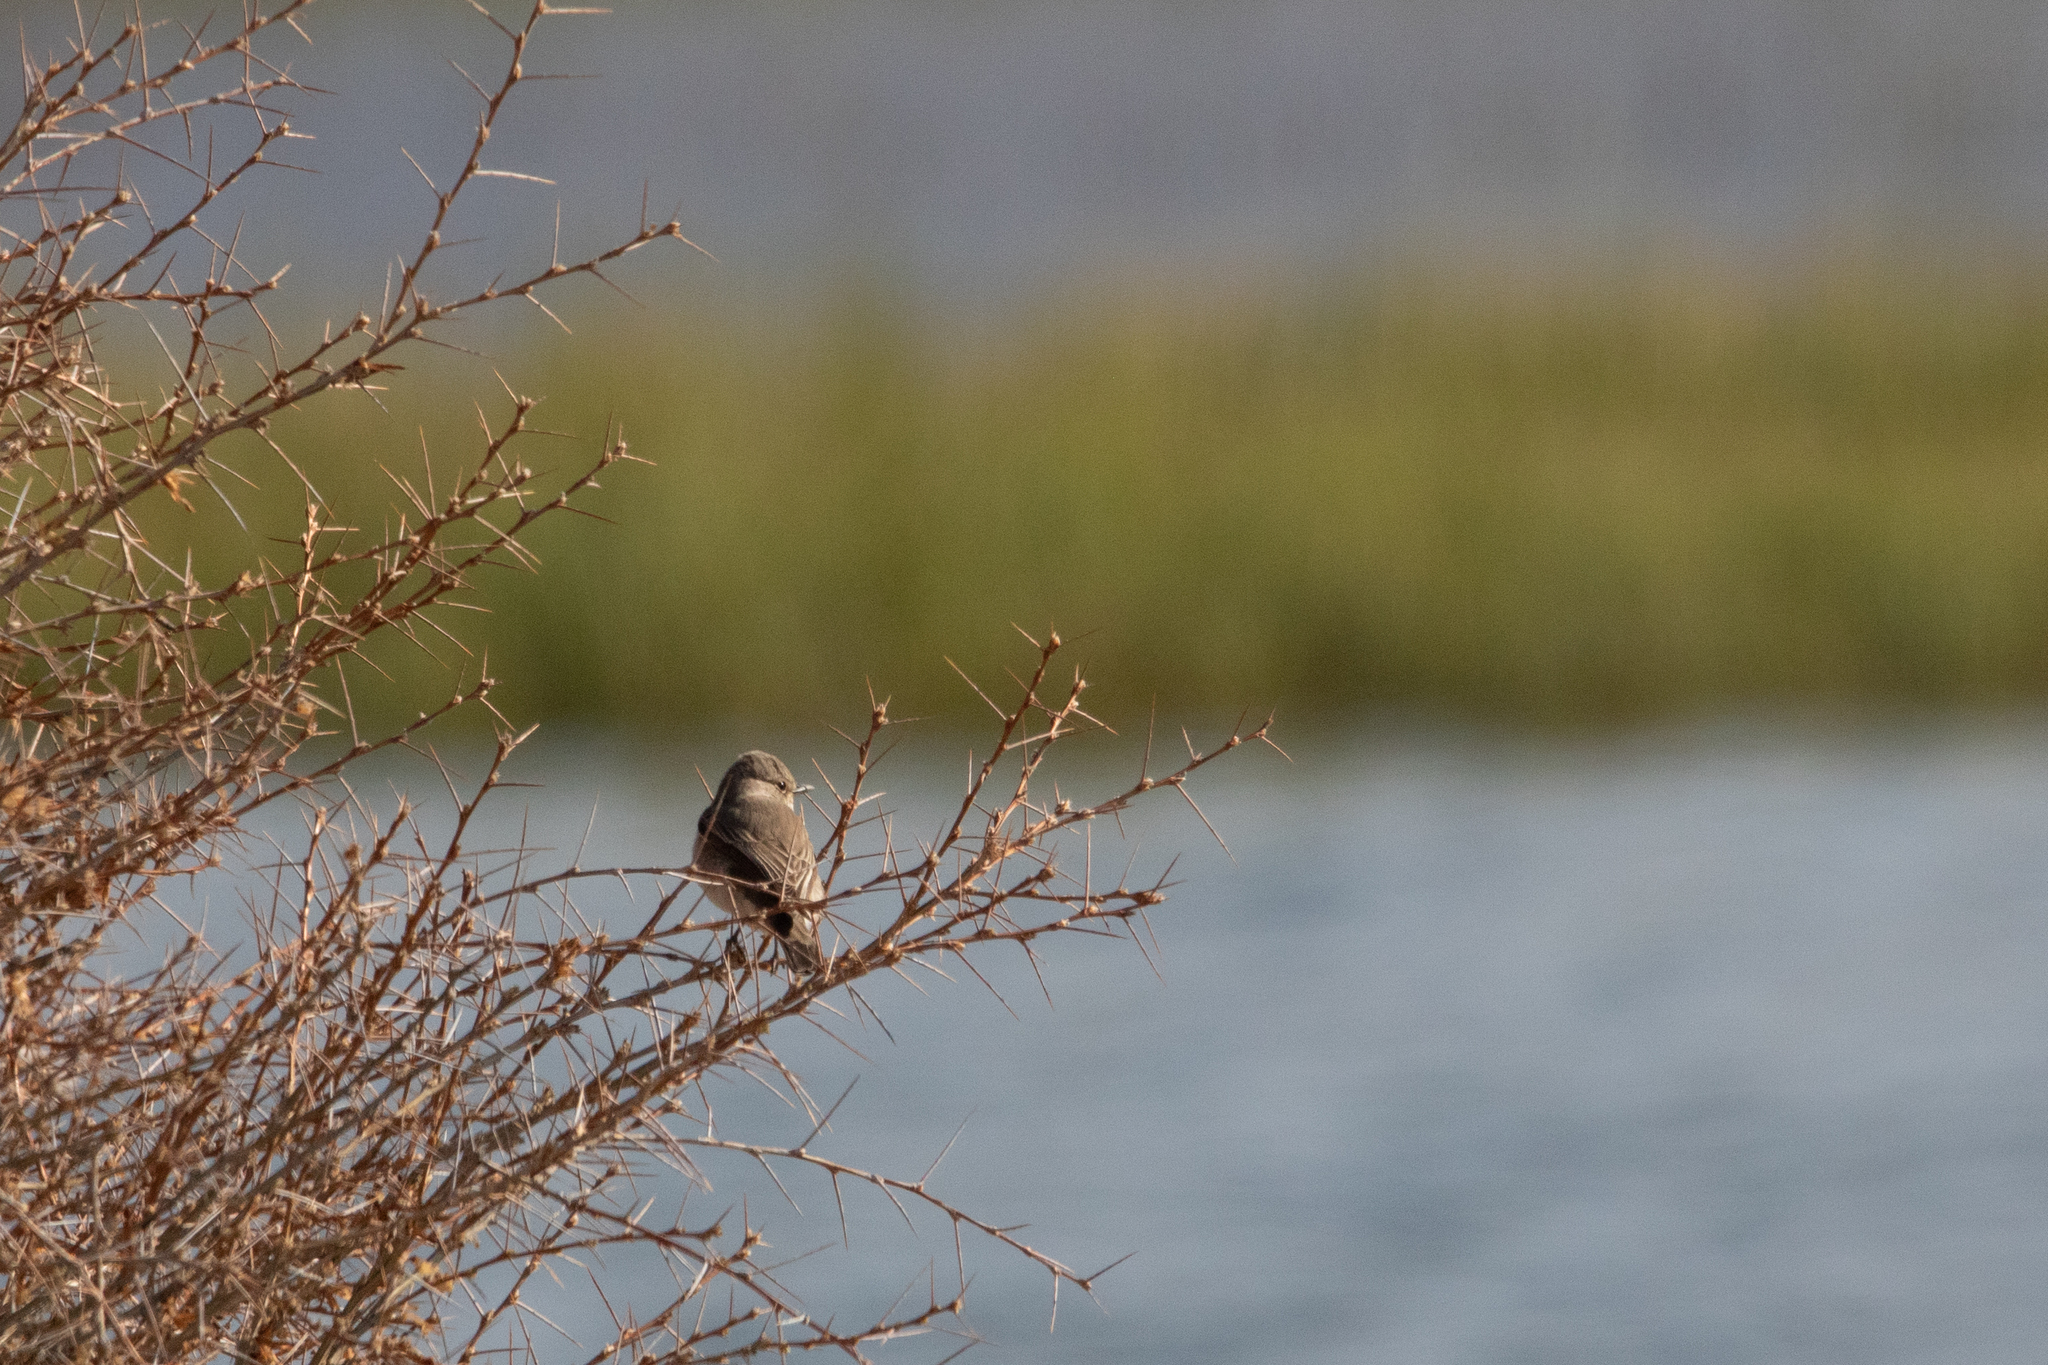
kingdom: Animalia
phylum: Chordata
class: Aves
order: Passeriformes
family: Muscicapidae
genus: Muscicapa
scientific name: Muscicapa striata
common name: Spotted flycatcher
